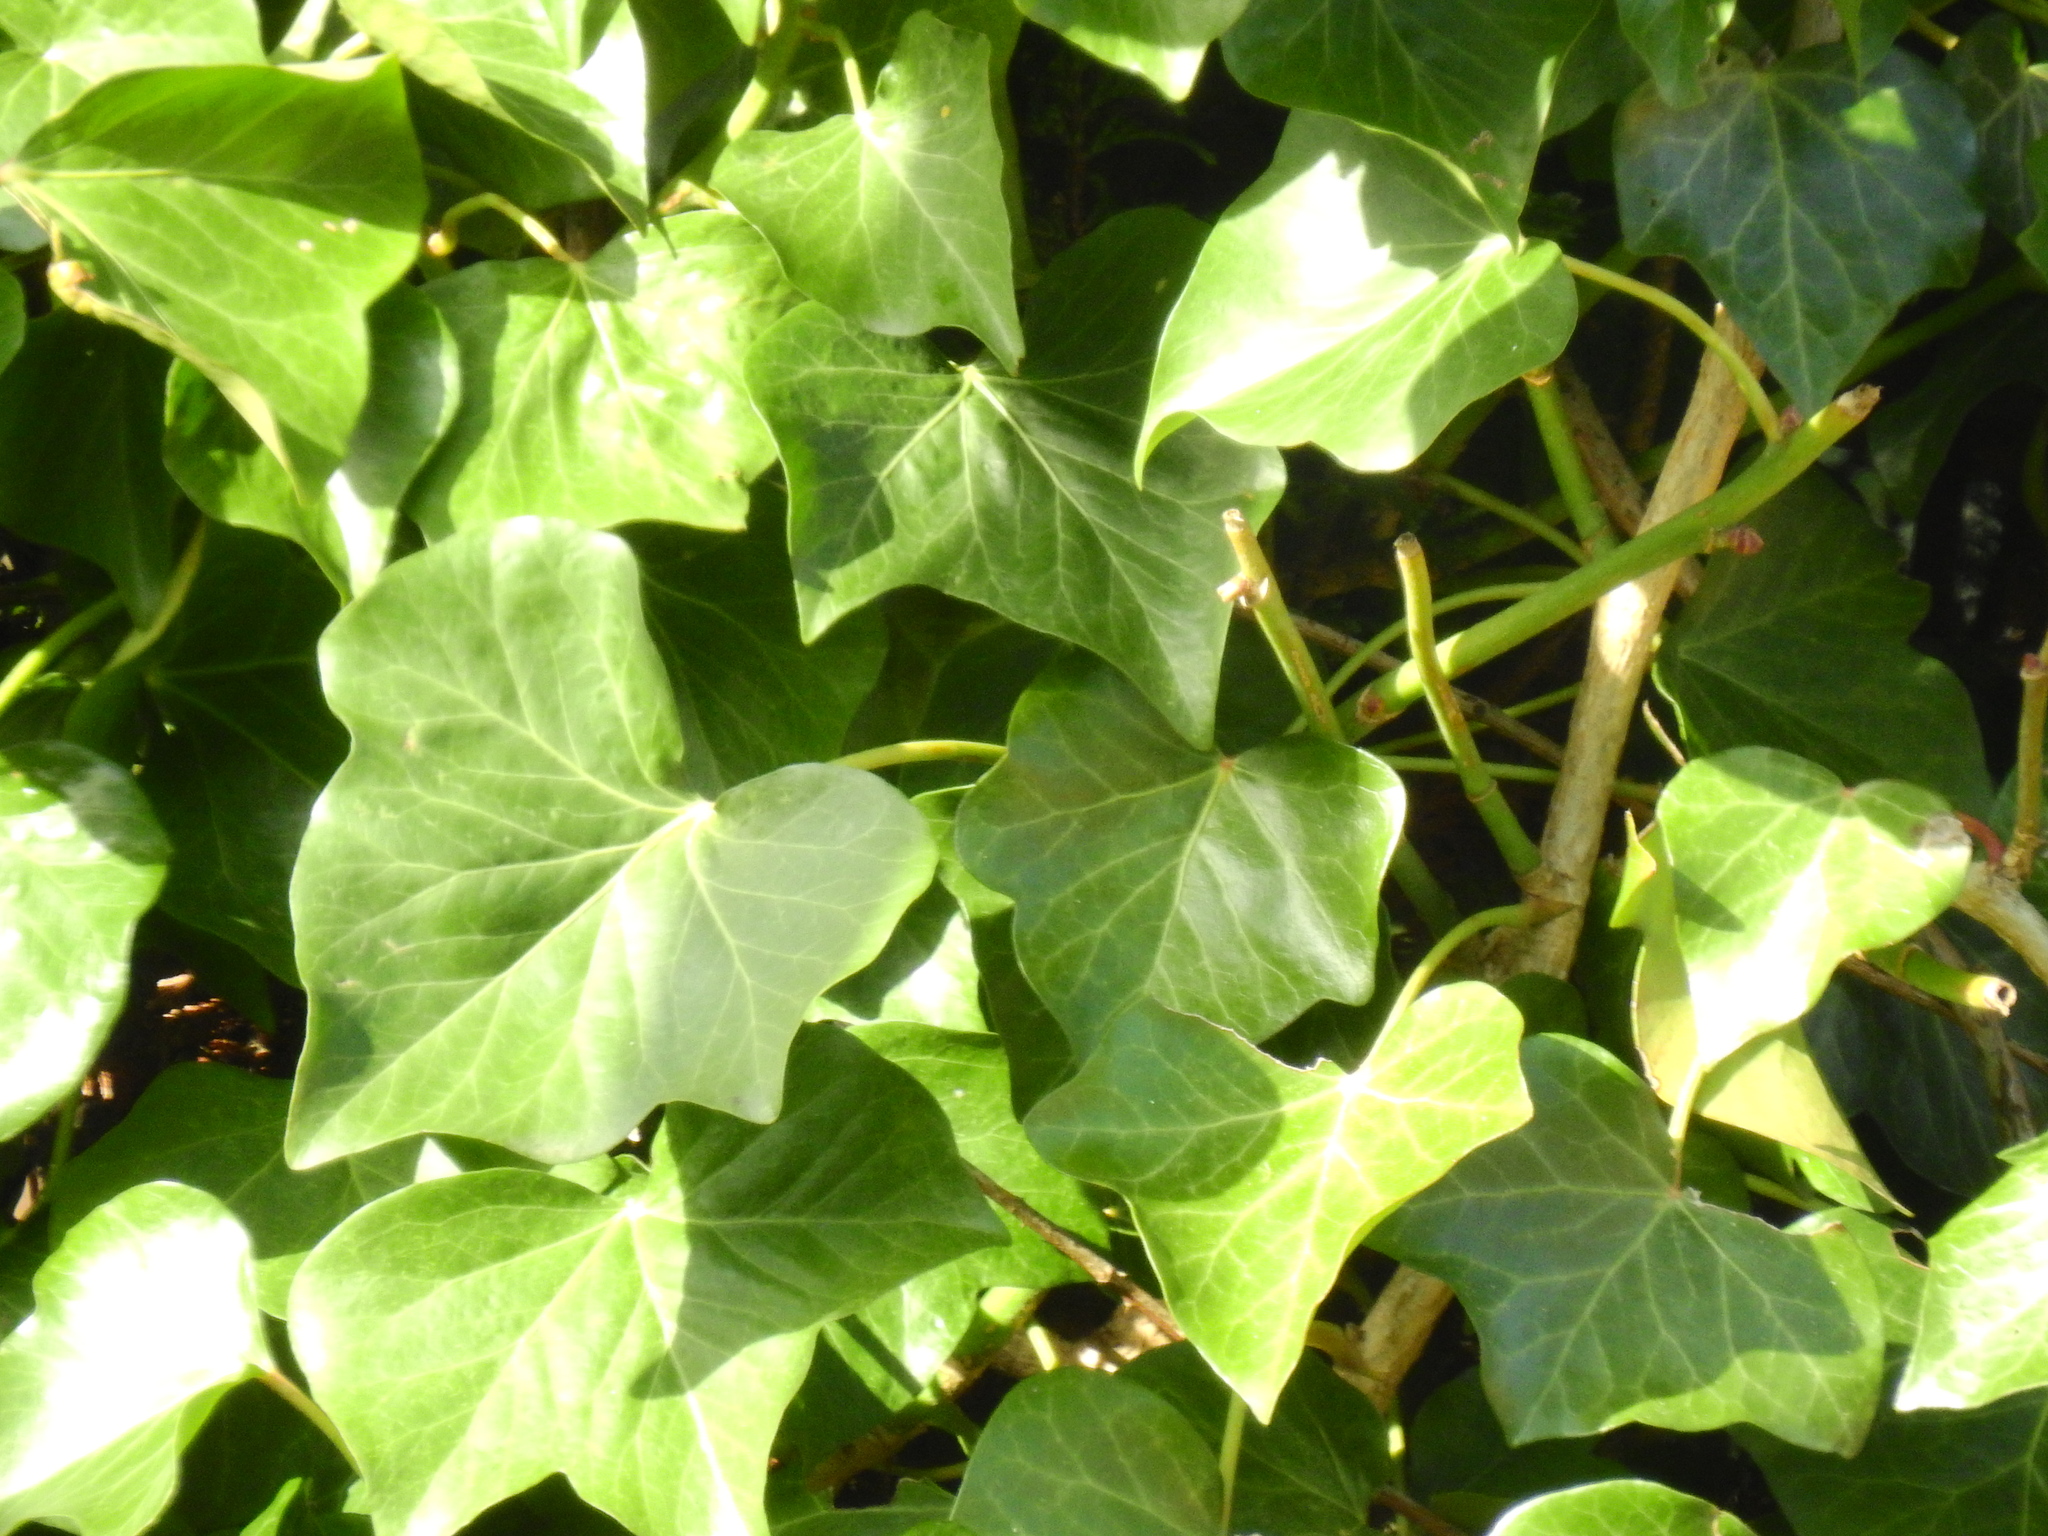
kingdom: Plantae
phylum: Tracheophyta
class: Magnoliopsida
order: Apiales
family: Araliaceae
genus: Hedera
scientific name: Hedera helix
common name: Ivy
